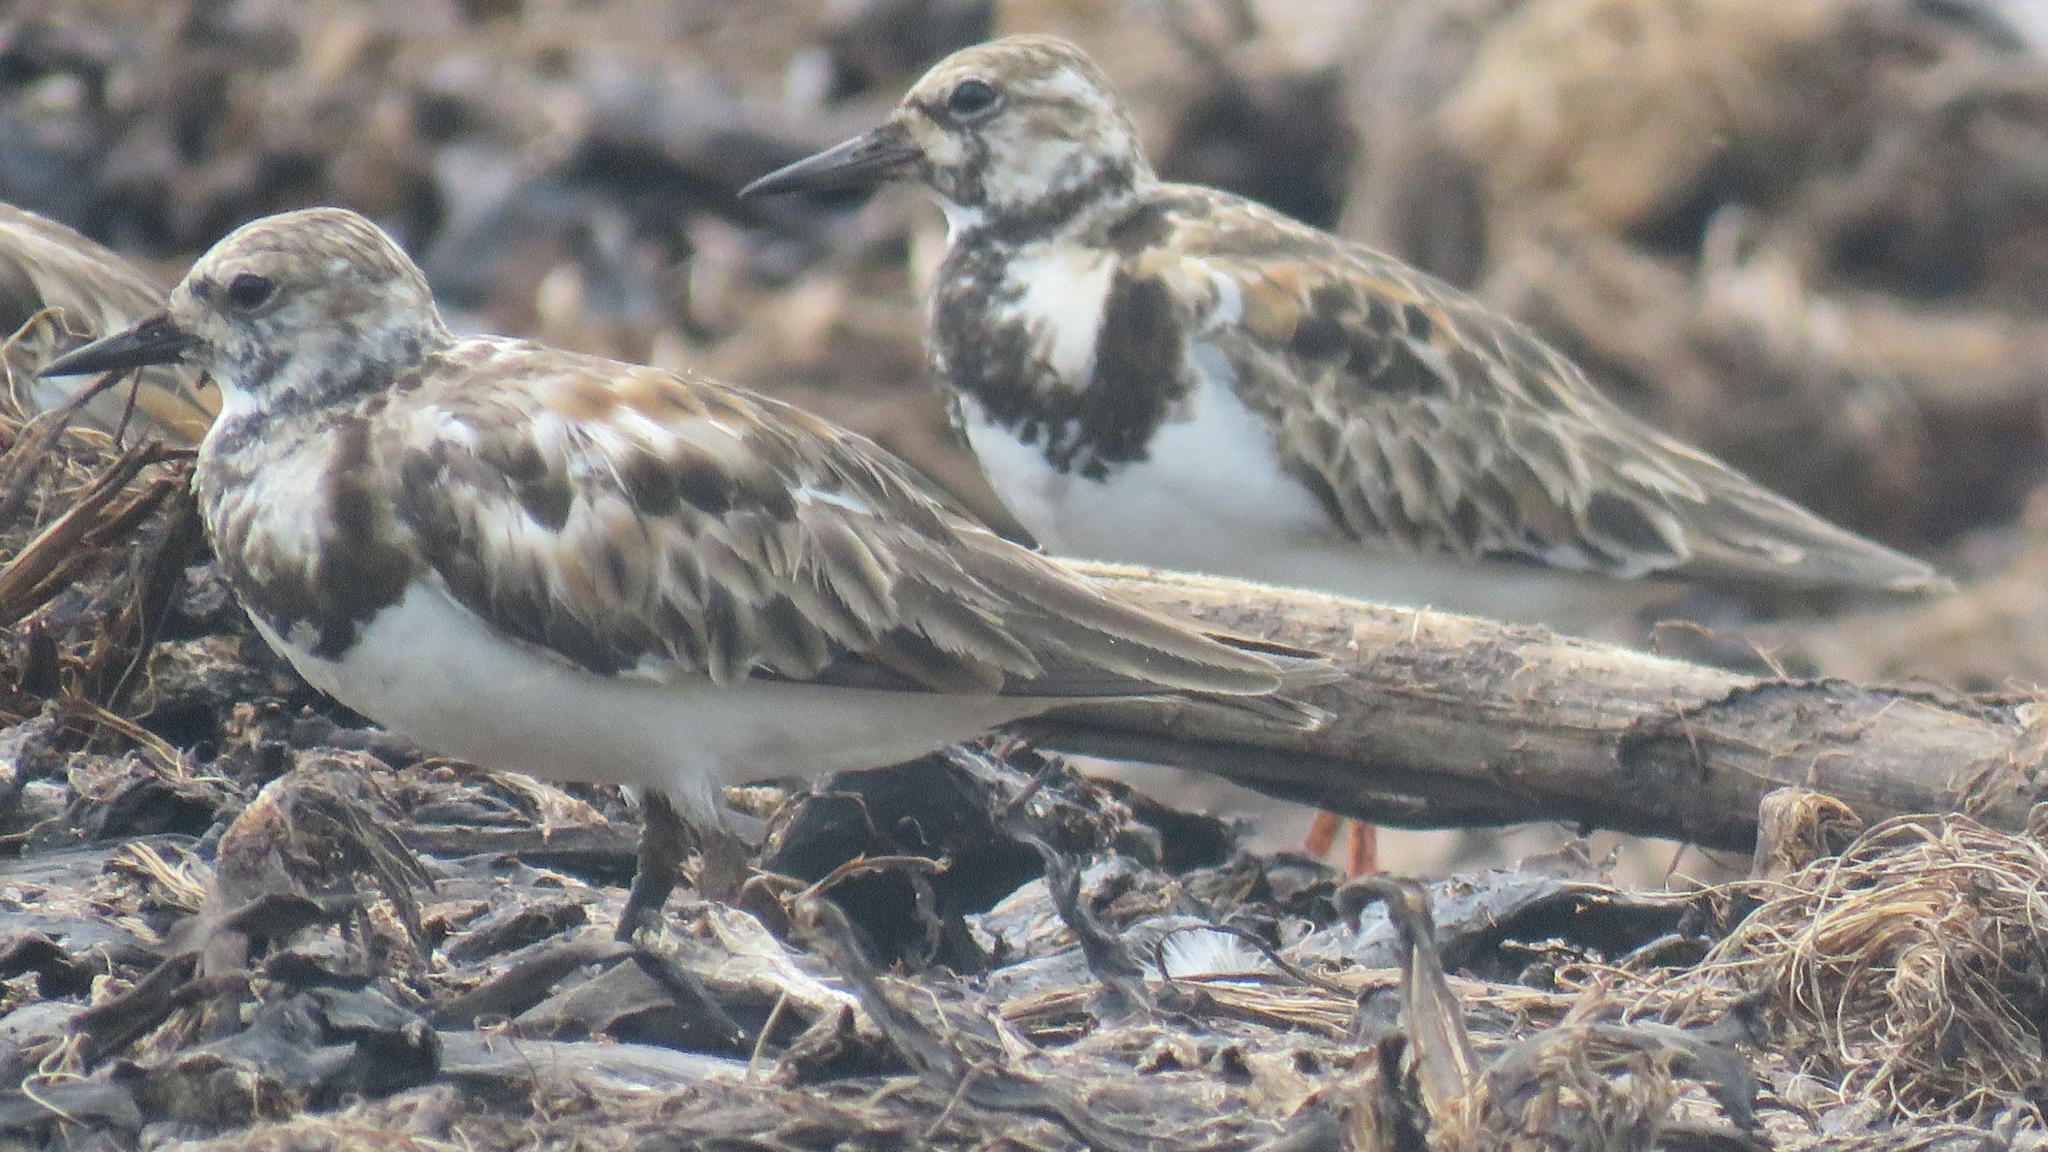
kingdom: Animalia
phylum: Chordata
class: Aves
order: Charadriiformes
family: Scolopacidae
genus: Arenaria
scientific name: Arenaria interpres
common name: Ruddy turnstone
